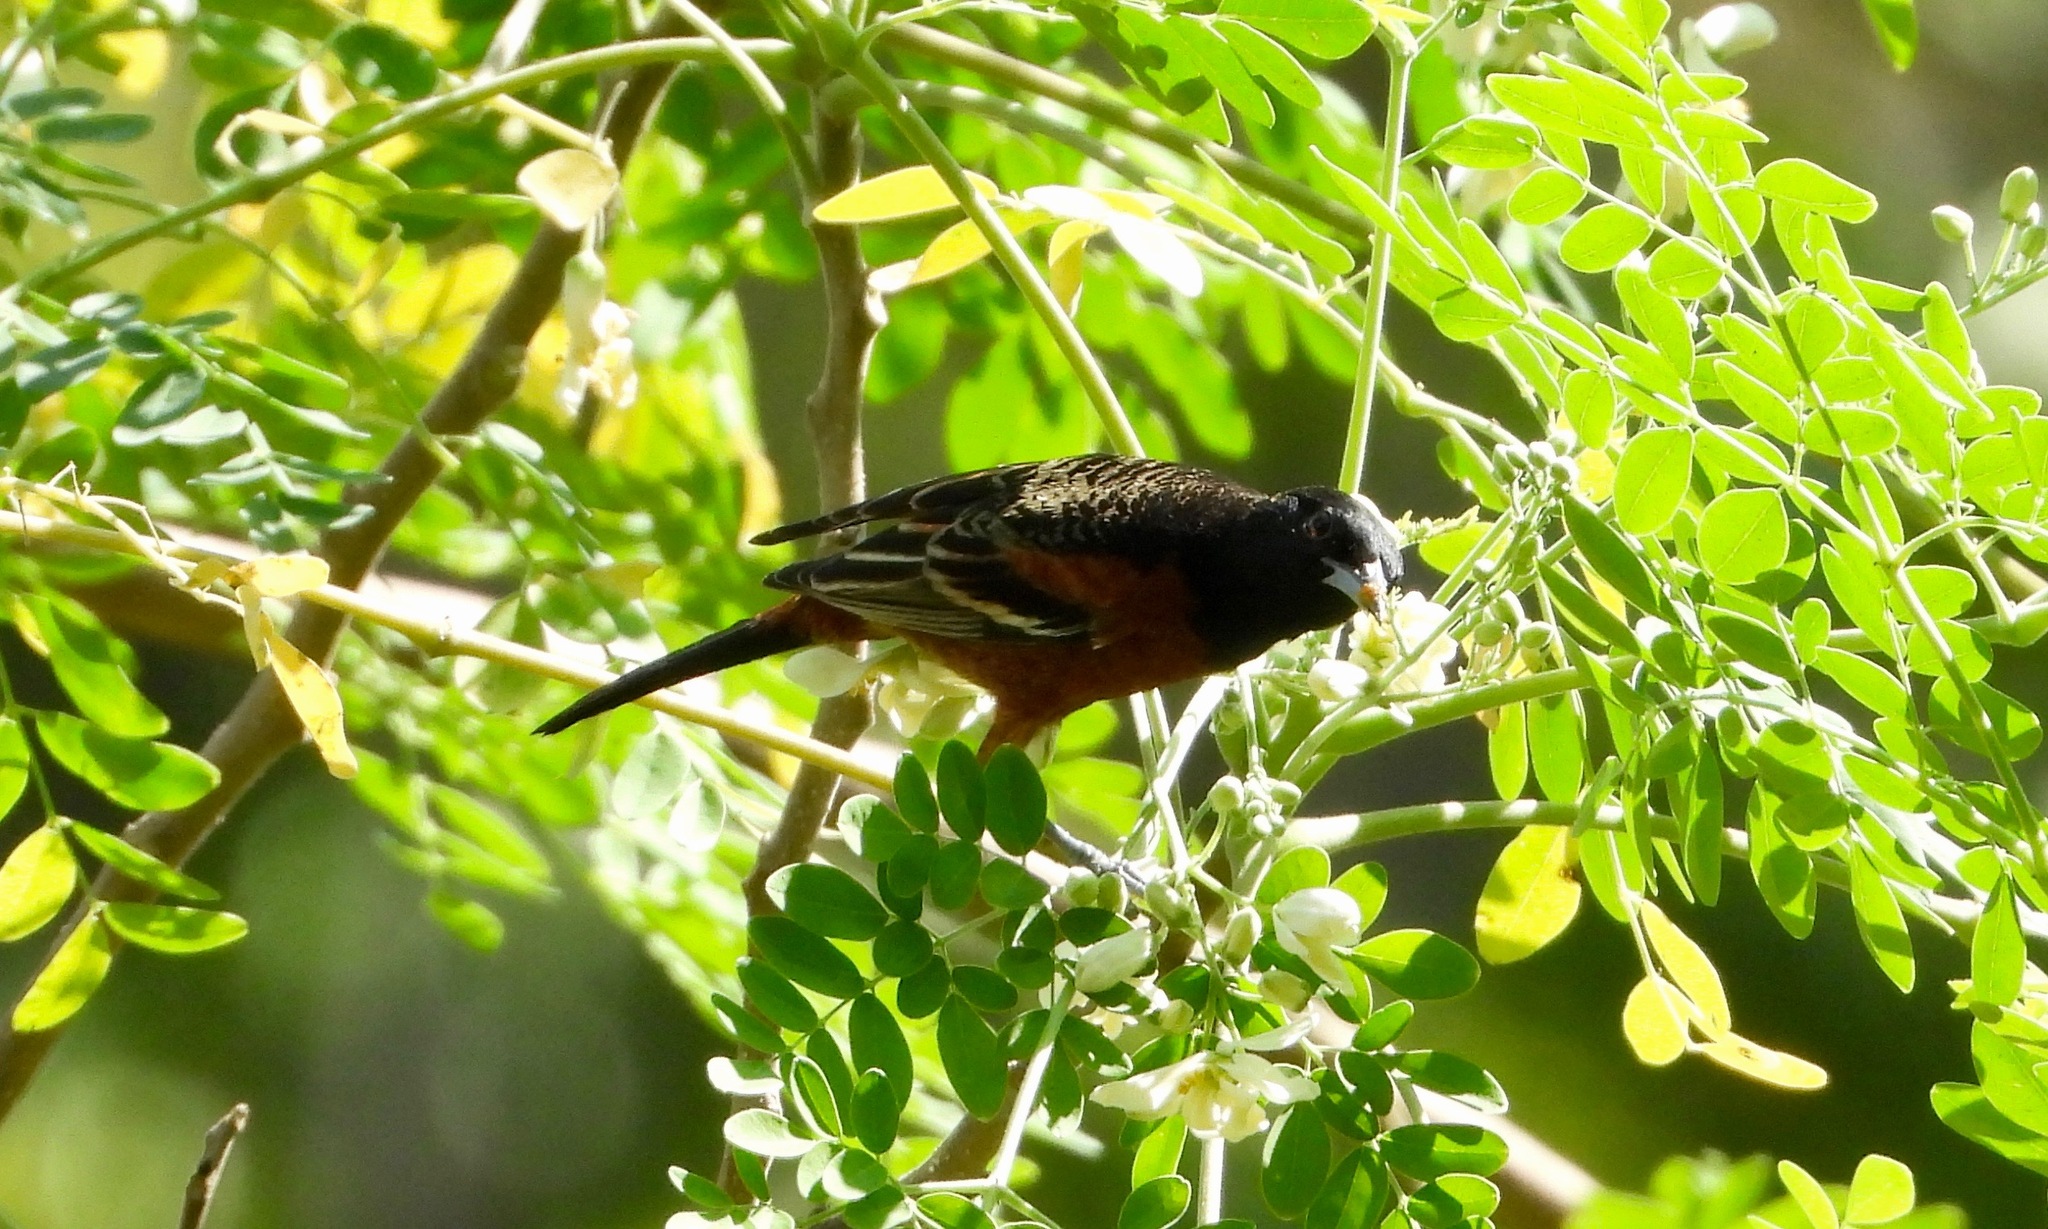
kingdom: Animalia
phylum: Chordata
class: Aves
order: Passeriformes
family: Icteridae
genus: Icterus
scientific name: Icterus spurius
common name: Orchard oriole
